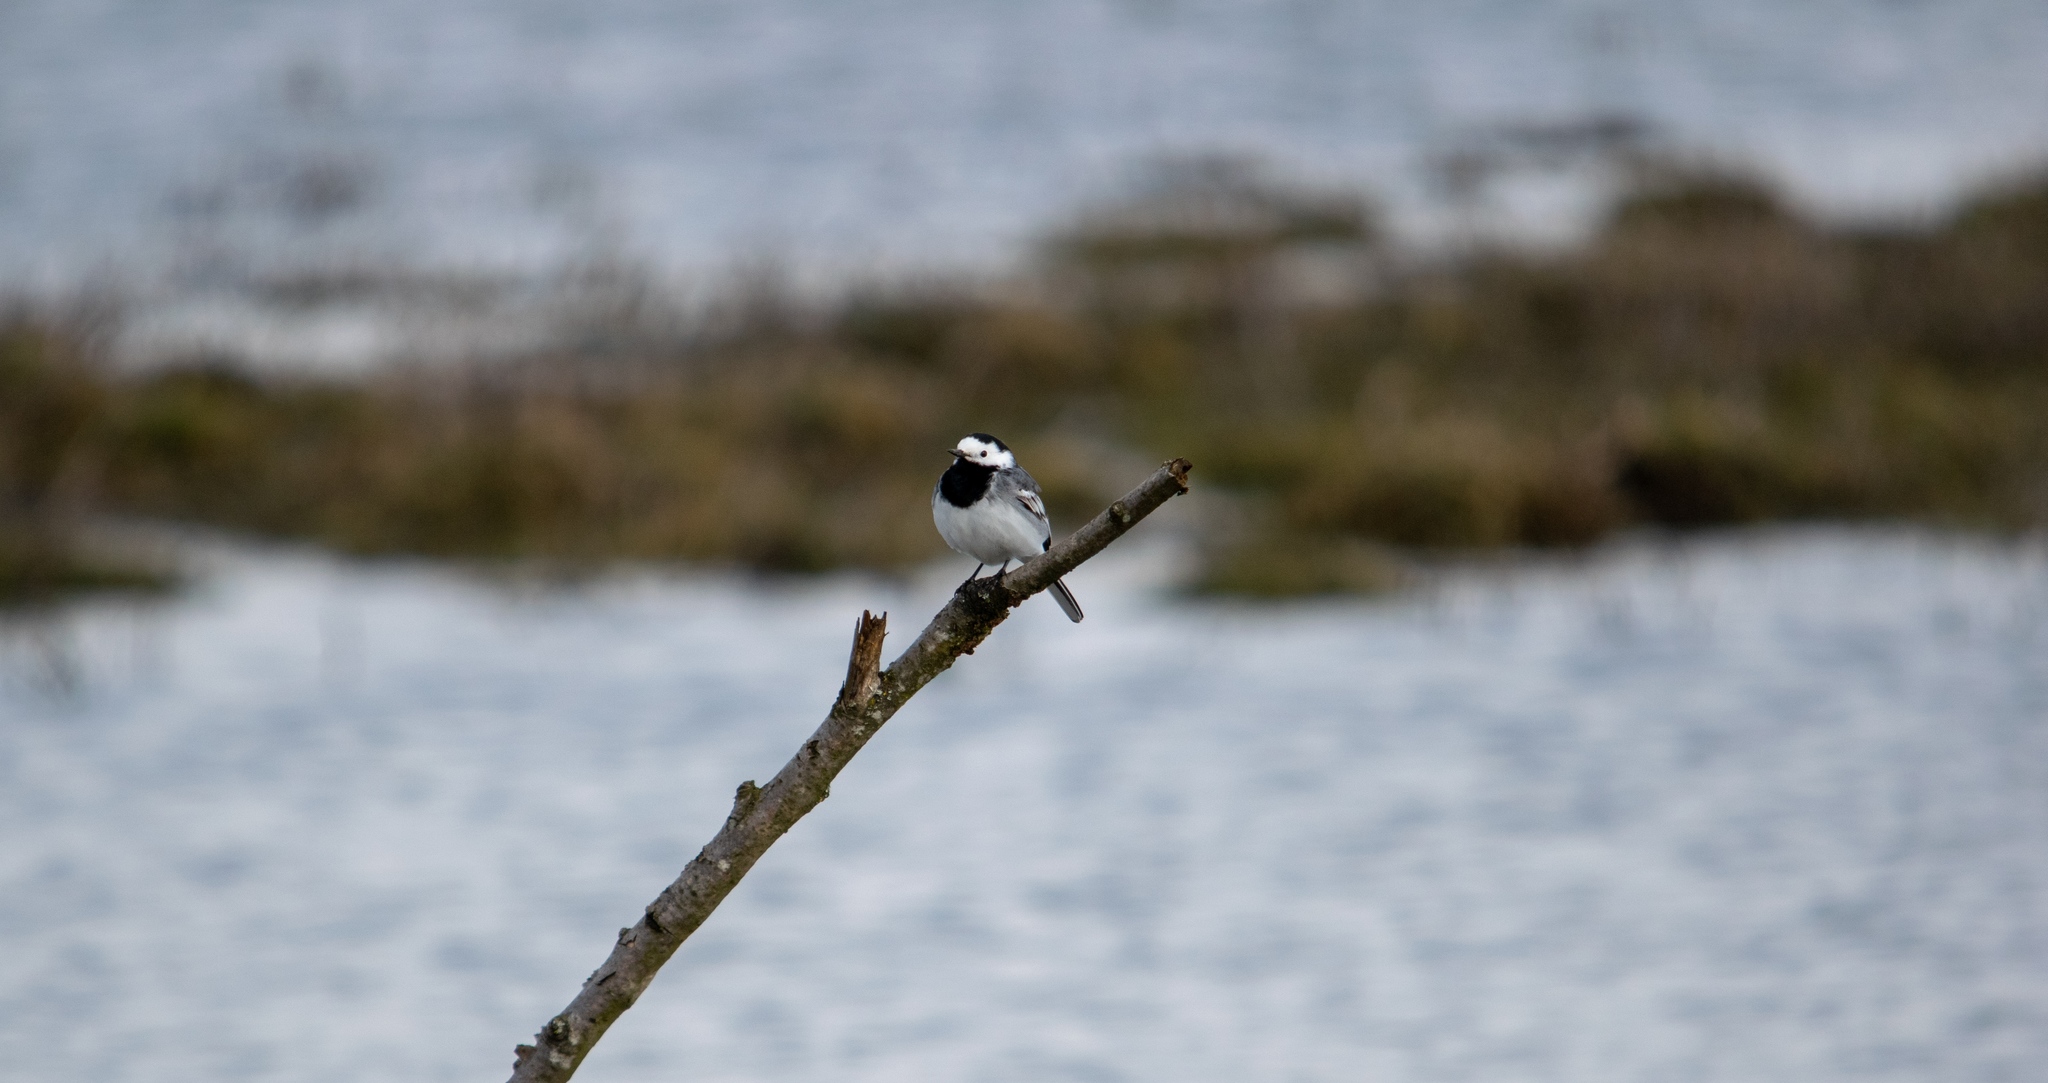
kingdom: Animalia
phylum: Chordata
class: Aves
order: Passeriformes
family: Motacillidae
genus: Motacilla
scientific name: Motacilla alba
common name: White wagtail
